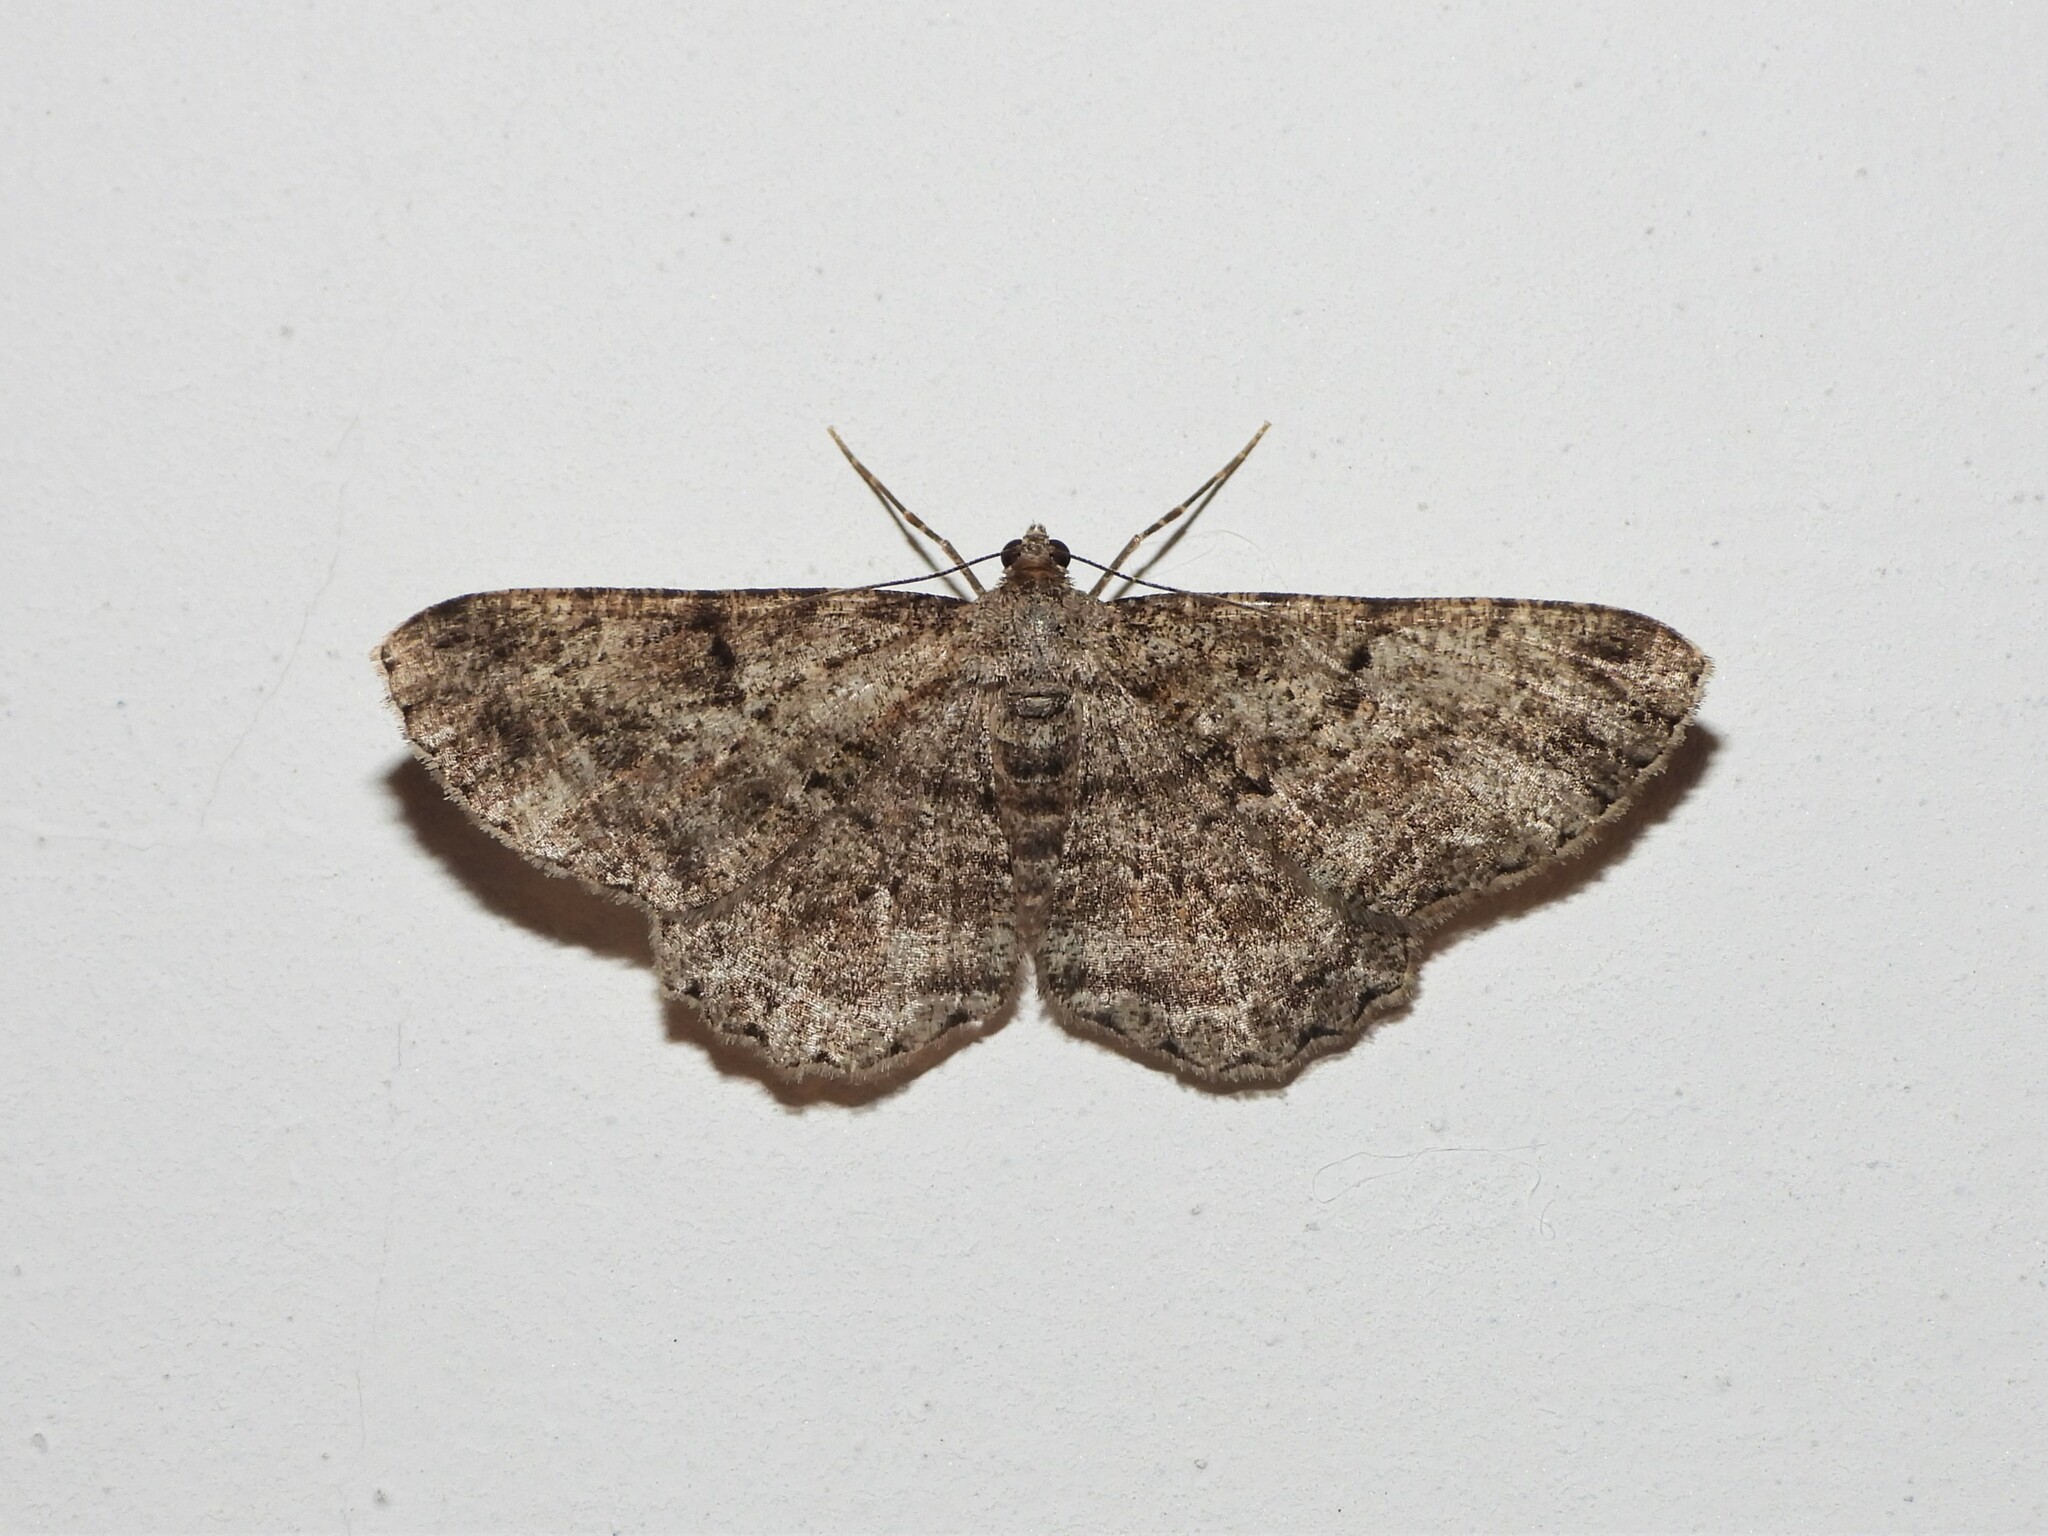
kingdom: Animalia
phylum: Arthropoda
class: Insecta
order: Lepidoptera
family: Geometridae
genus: Peribatodes
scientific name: Peribatodes rhomboidaria
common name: Willow beauty
